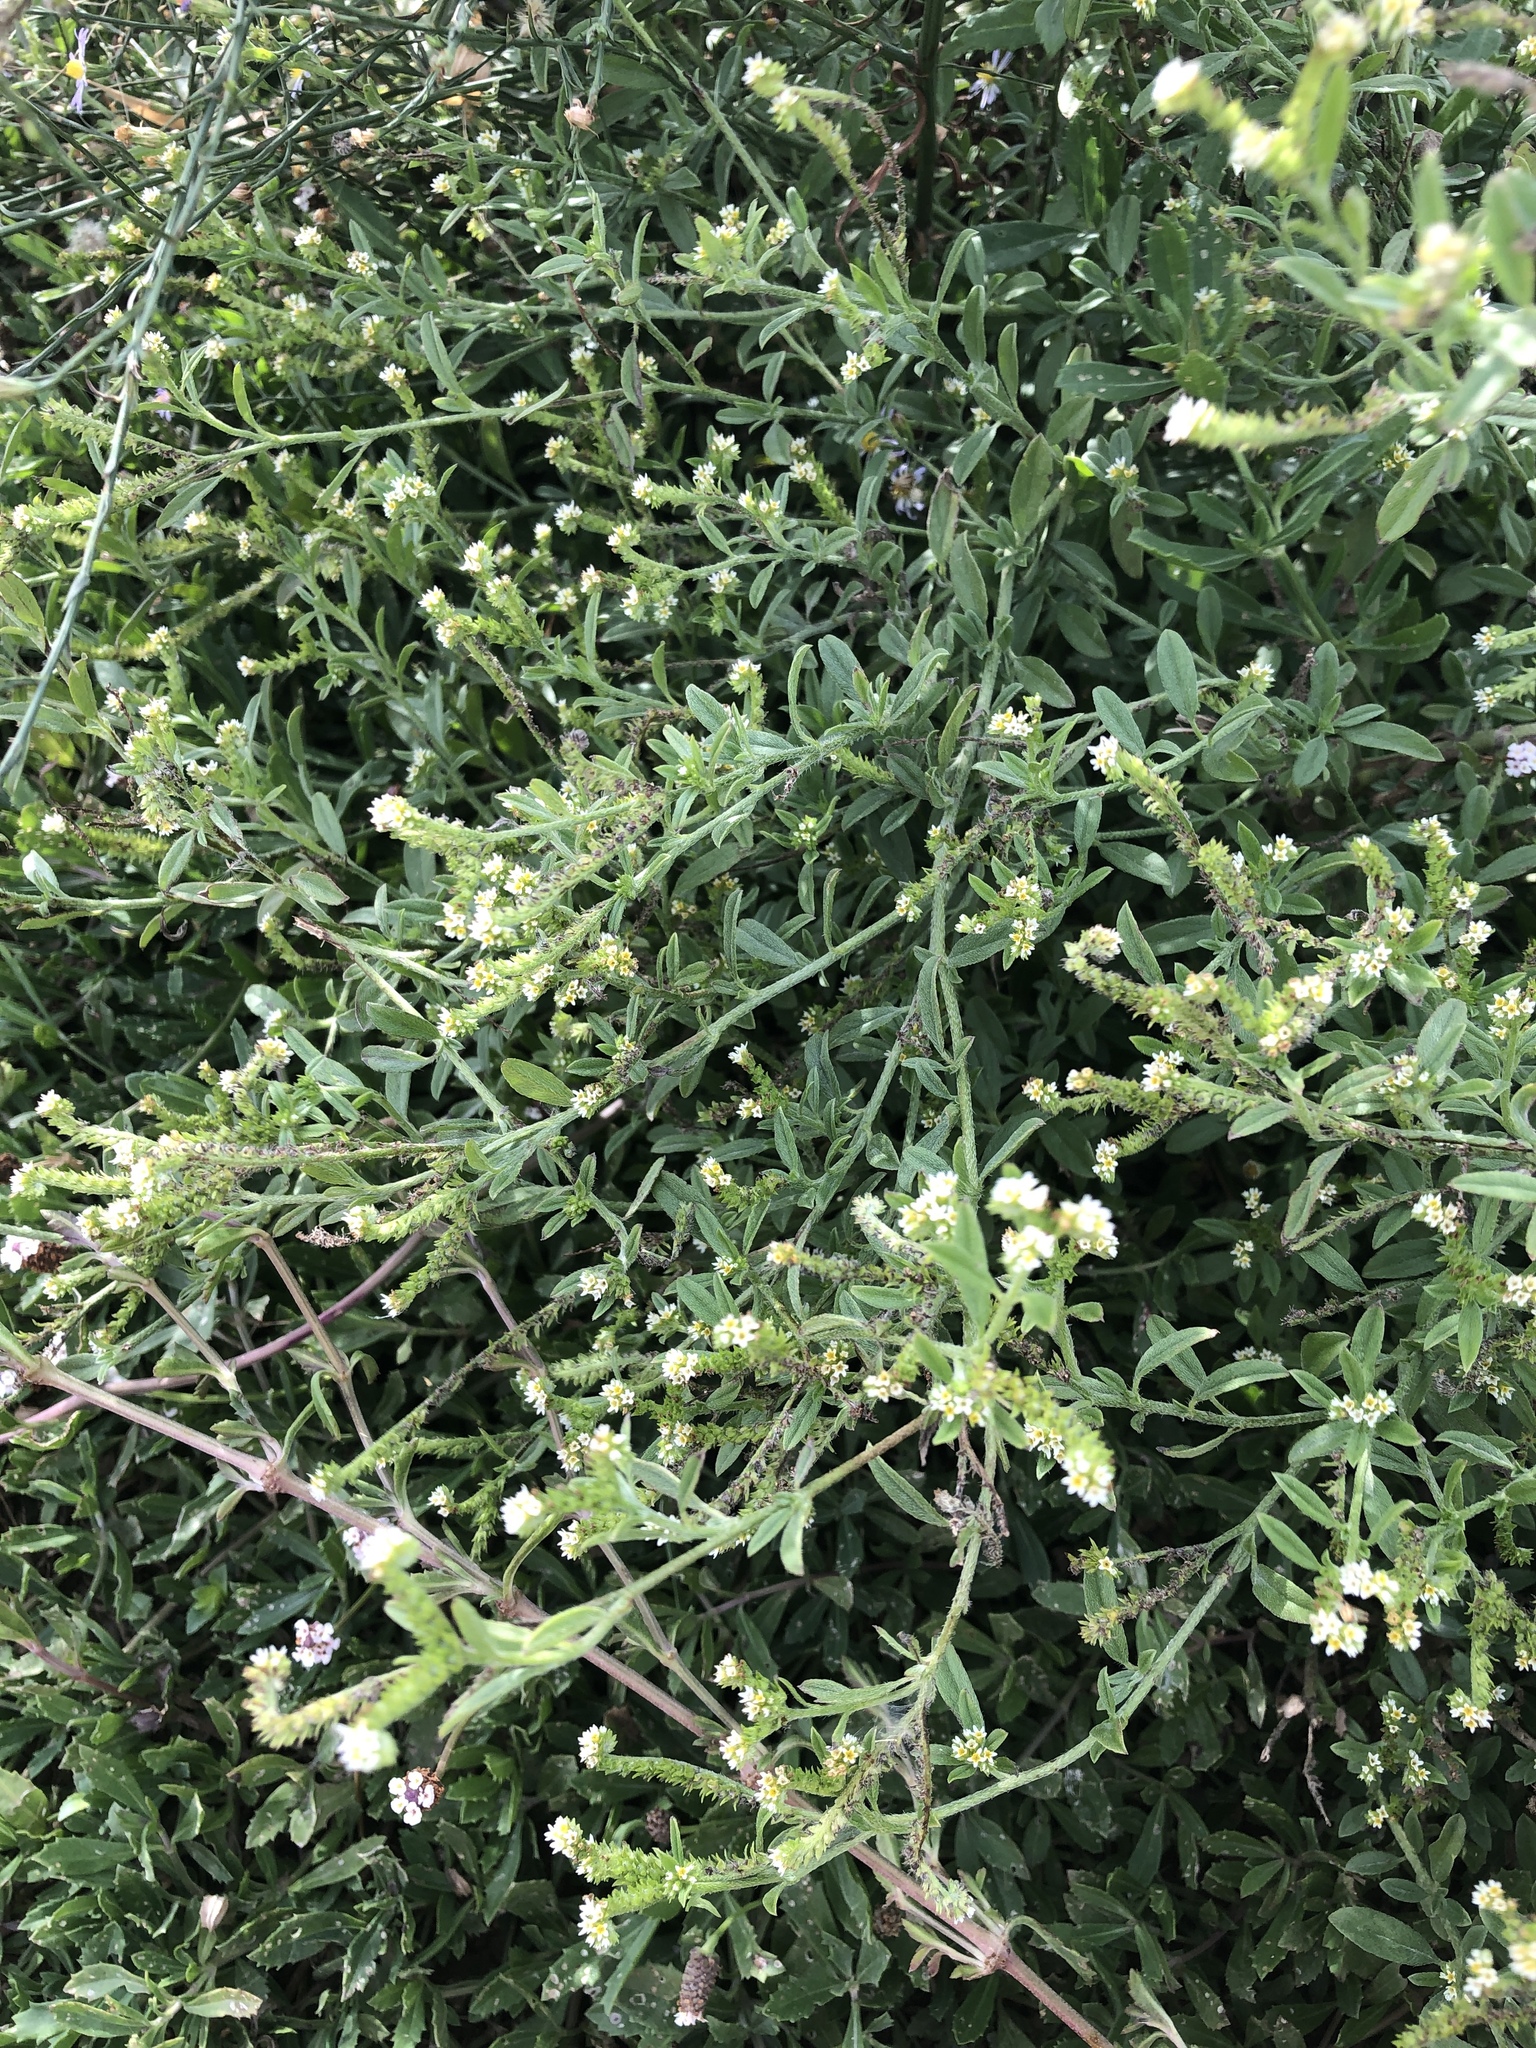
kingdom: Plantae
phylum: Tracheophyta
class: Magnoliopsida
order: Boraginales
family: Heliotropiaceae
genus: Euploca
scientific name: Euploca procumbens
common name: Fourspike heliotrope
